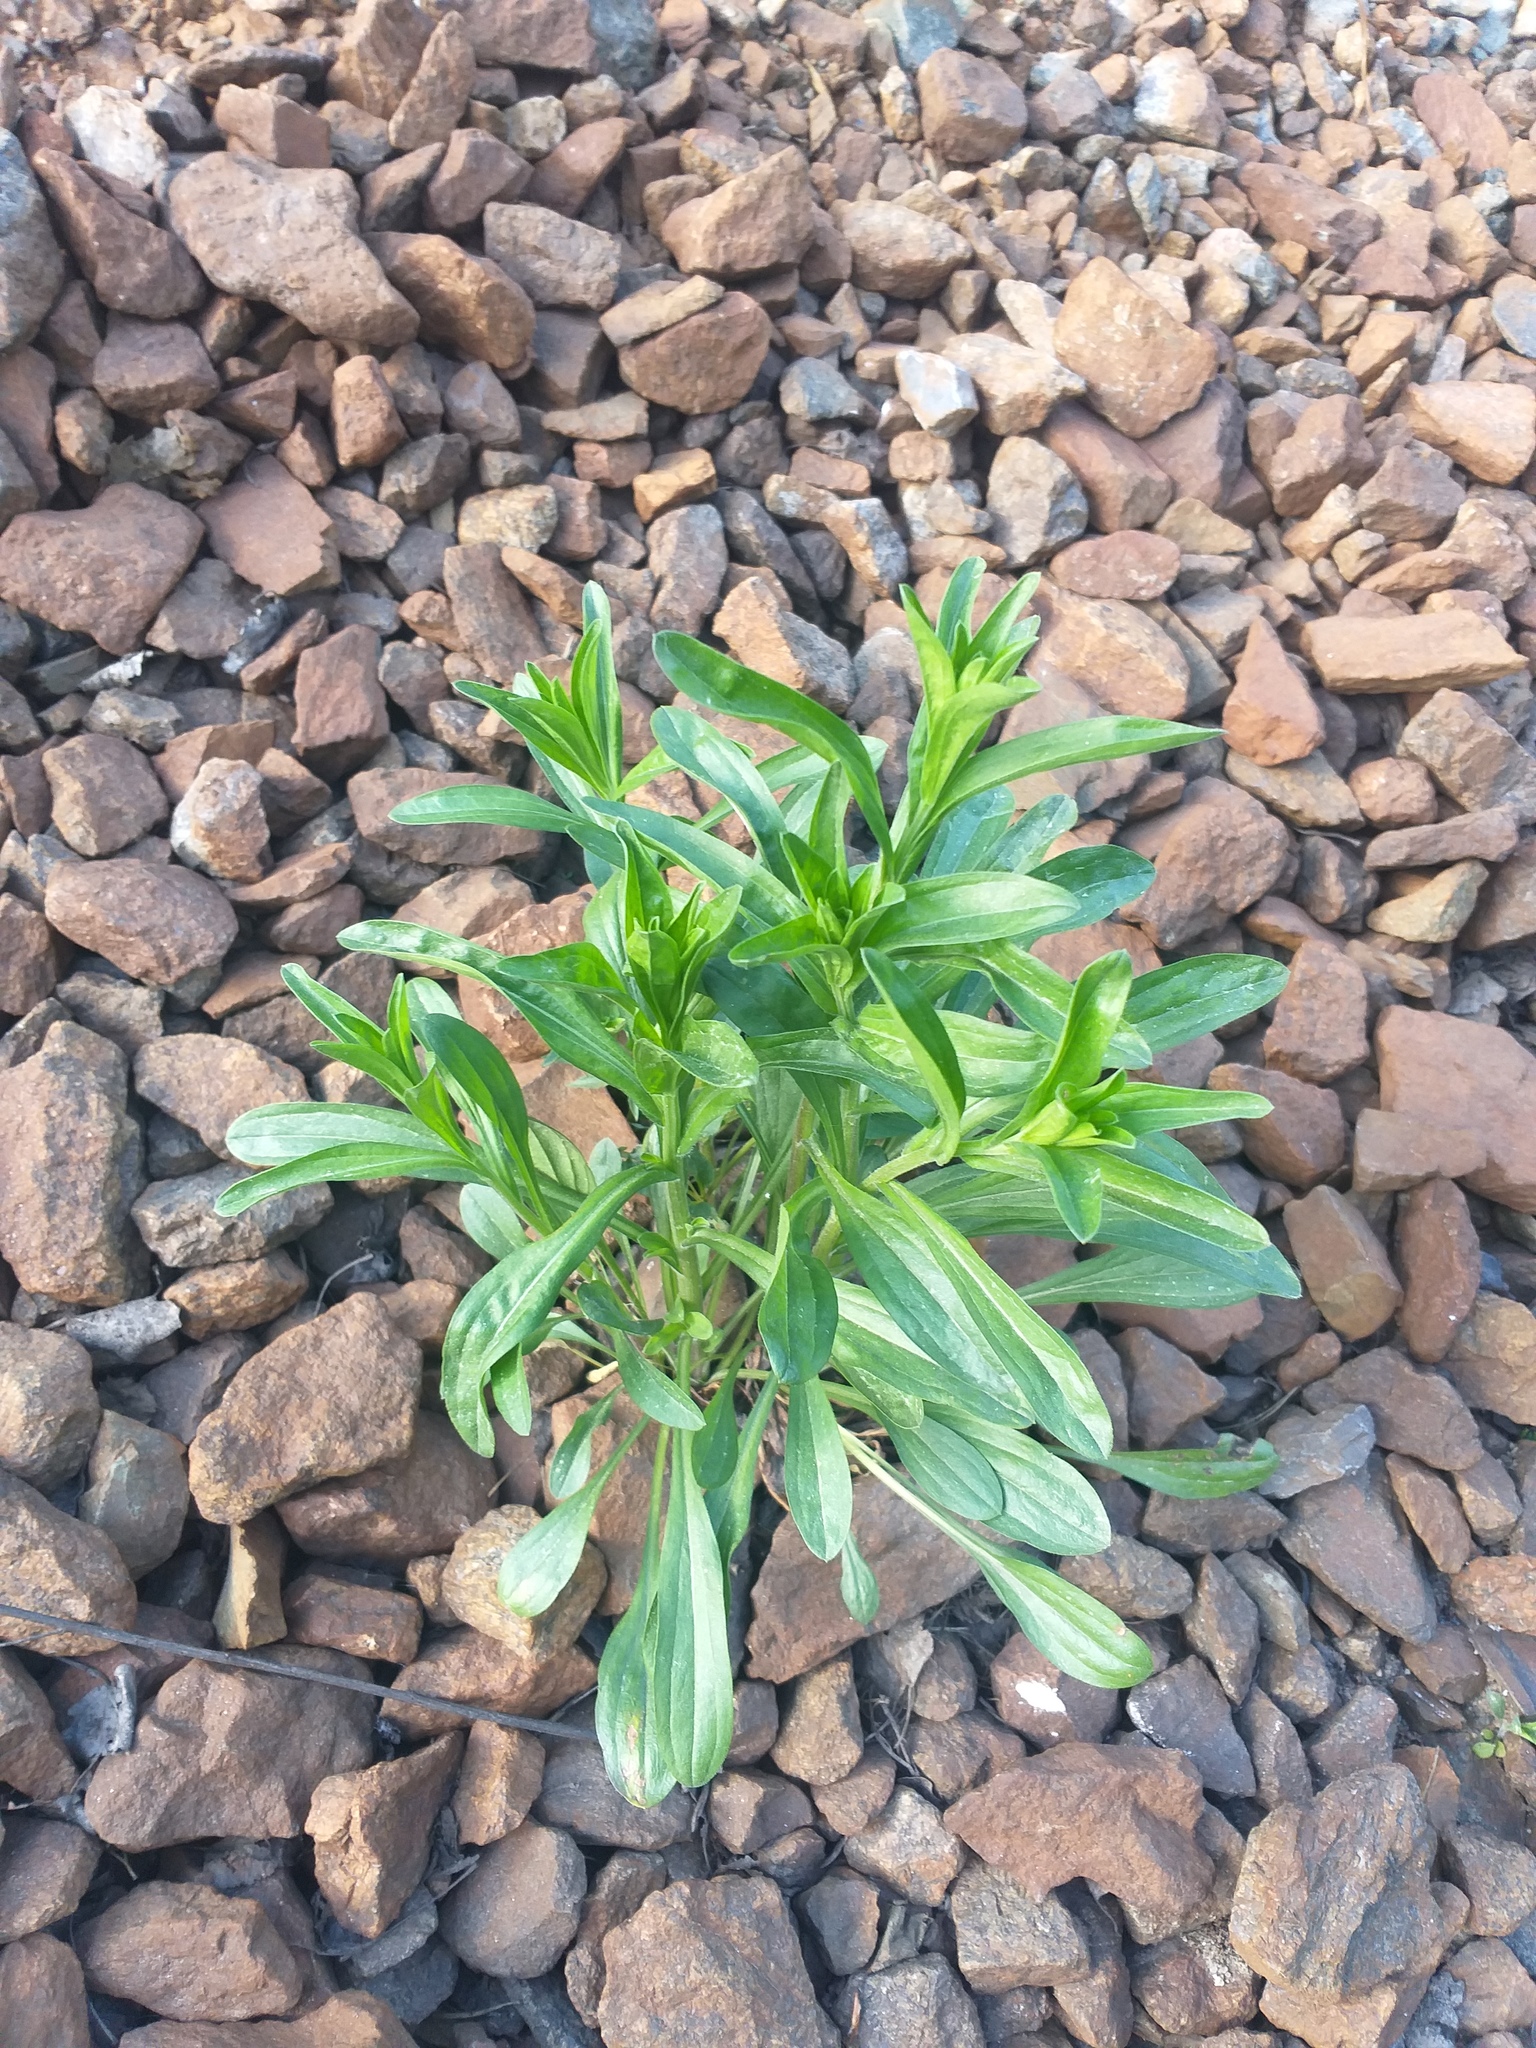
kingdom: Plantae
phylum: Tracheophyta
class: Magnoliopsida
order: Asterales
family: Asteraceae
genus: Erigeron
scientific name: Erigeron droebachiensis
